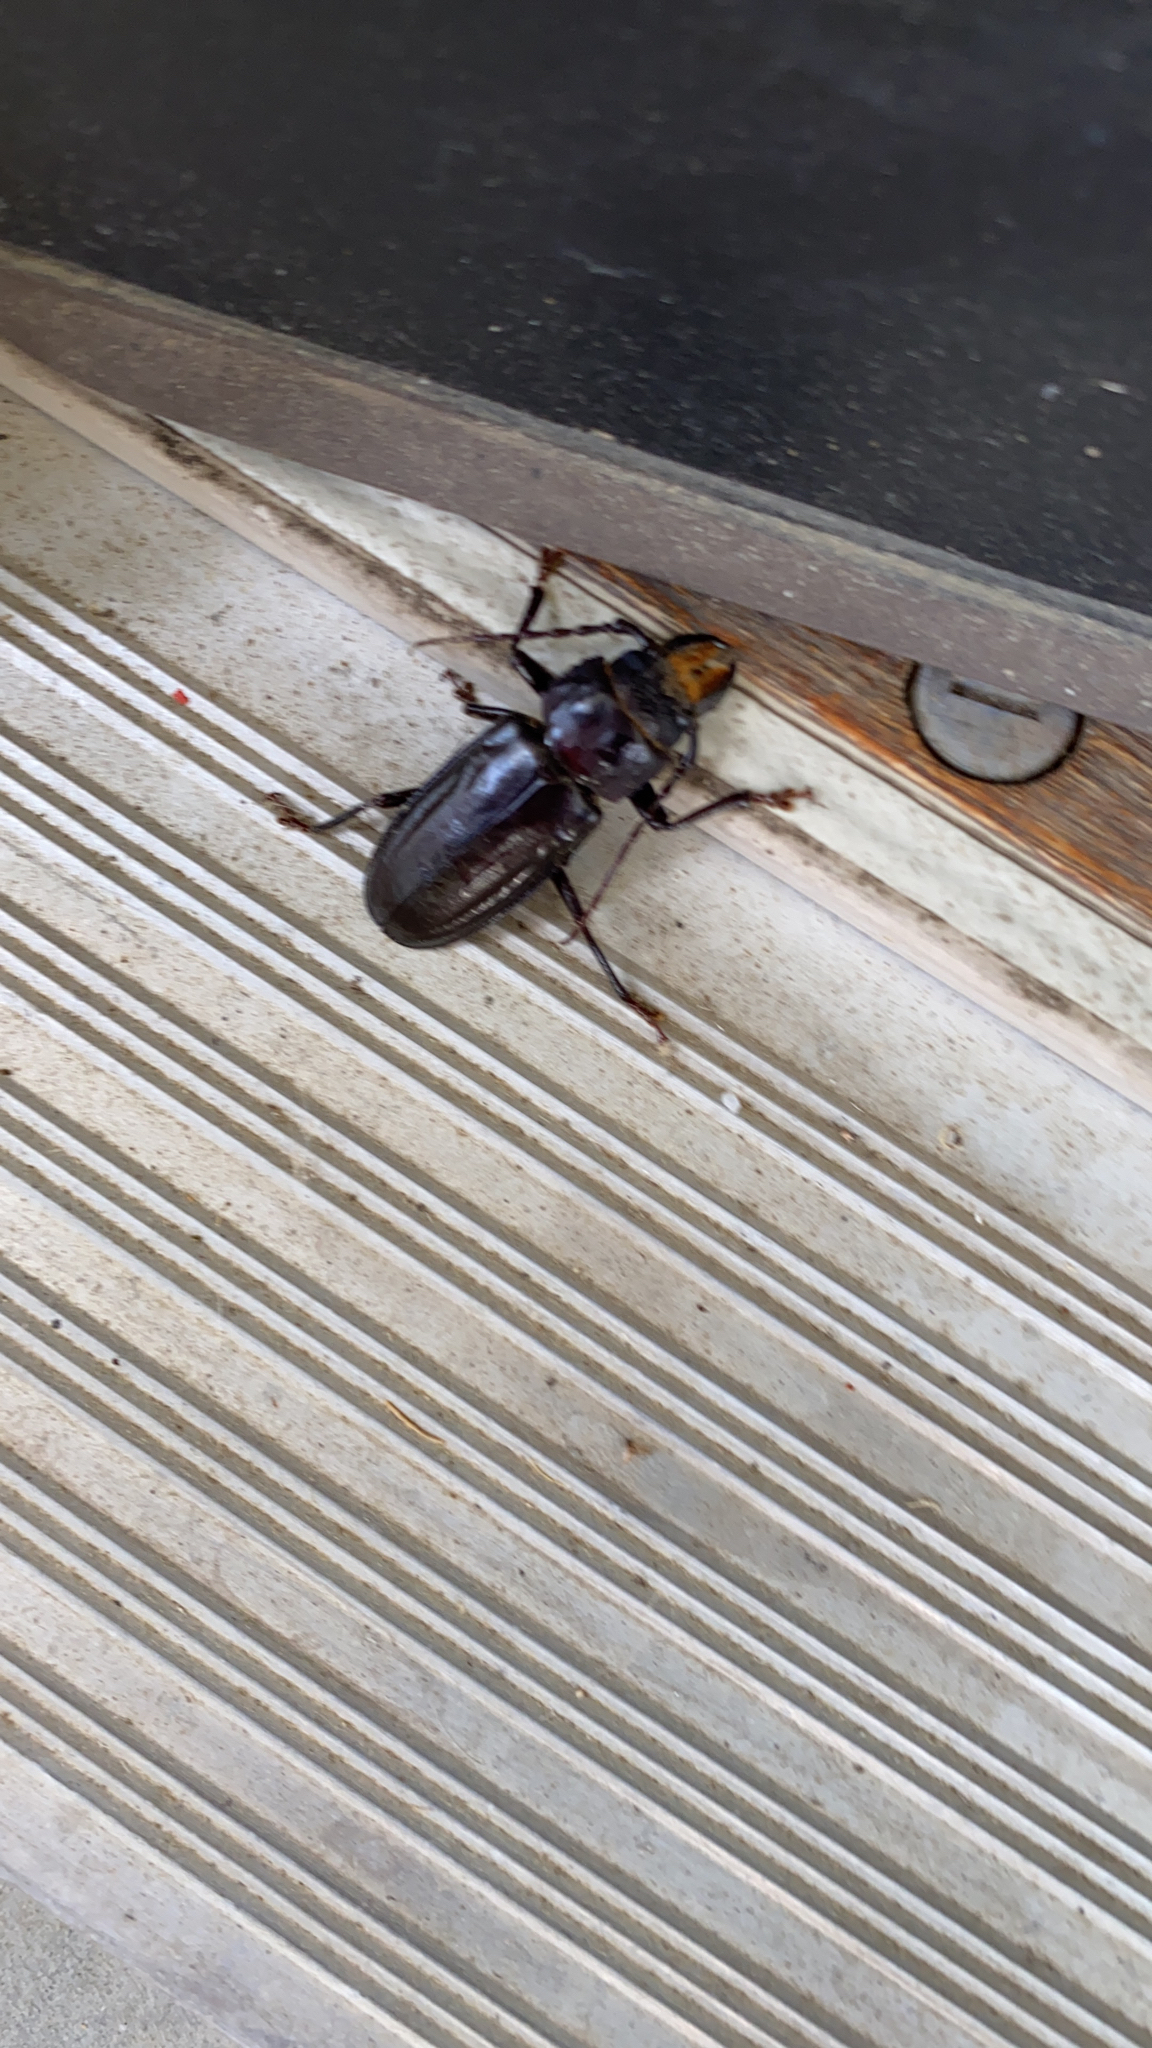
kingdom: Animalia
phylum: Arthropoda
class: Insecta
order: Coleoptera
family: Cerambycidae
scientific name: Cerambycidae
